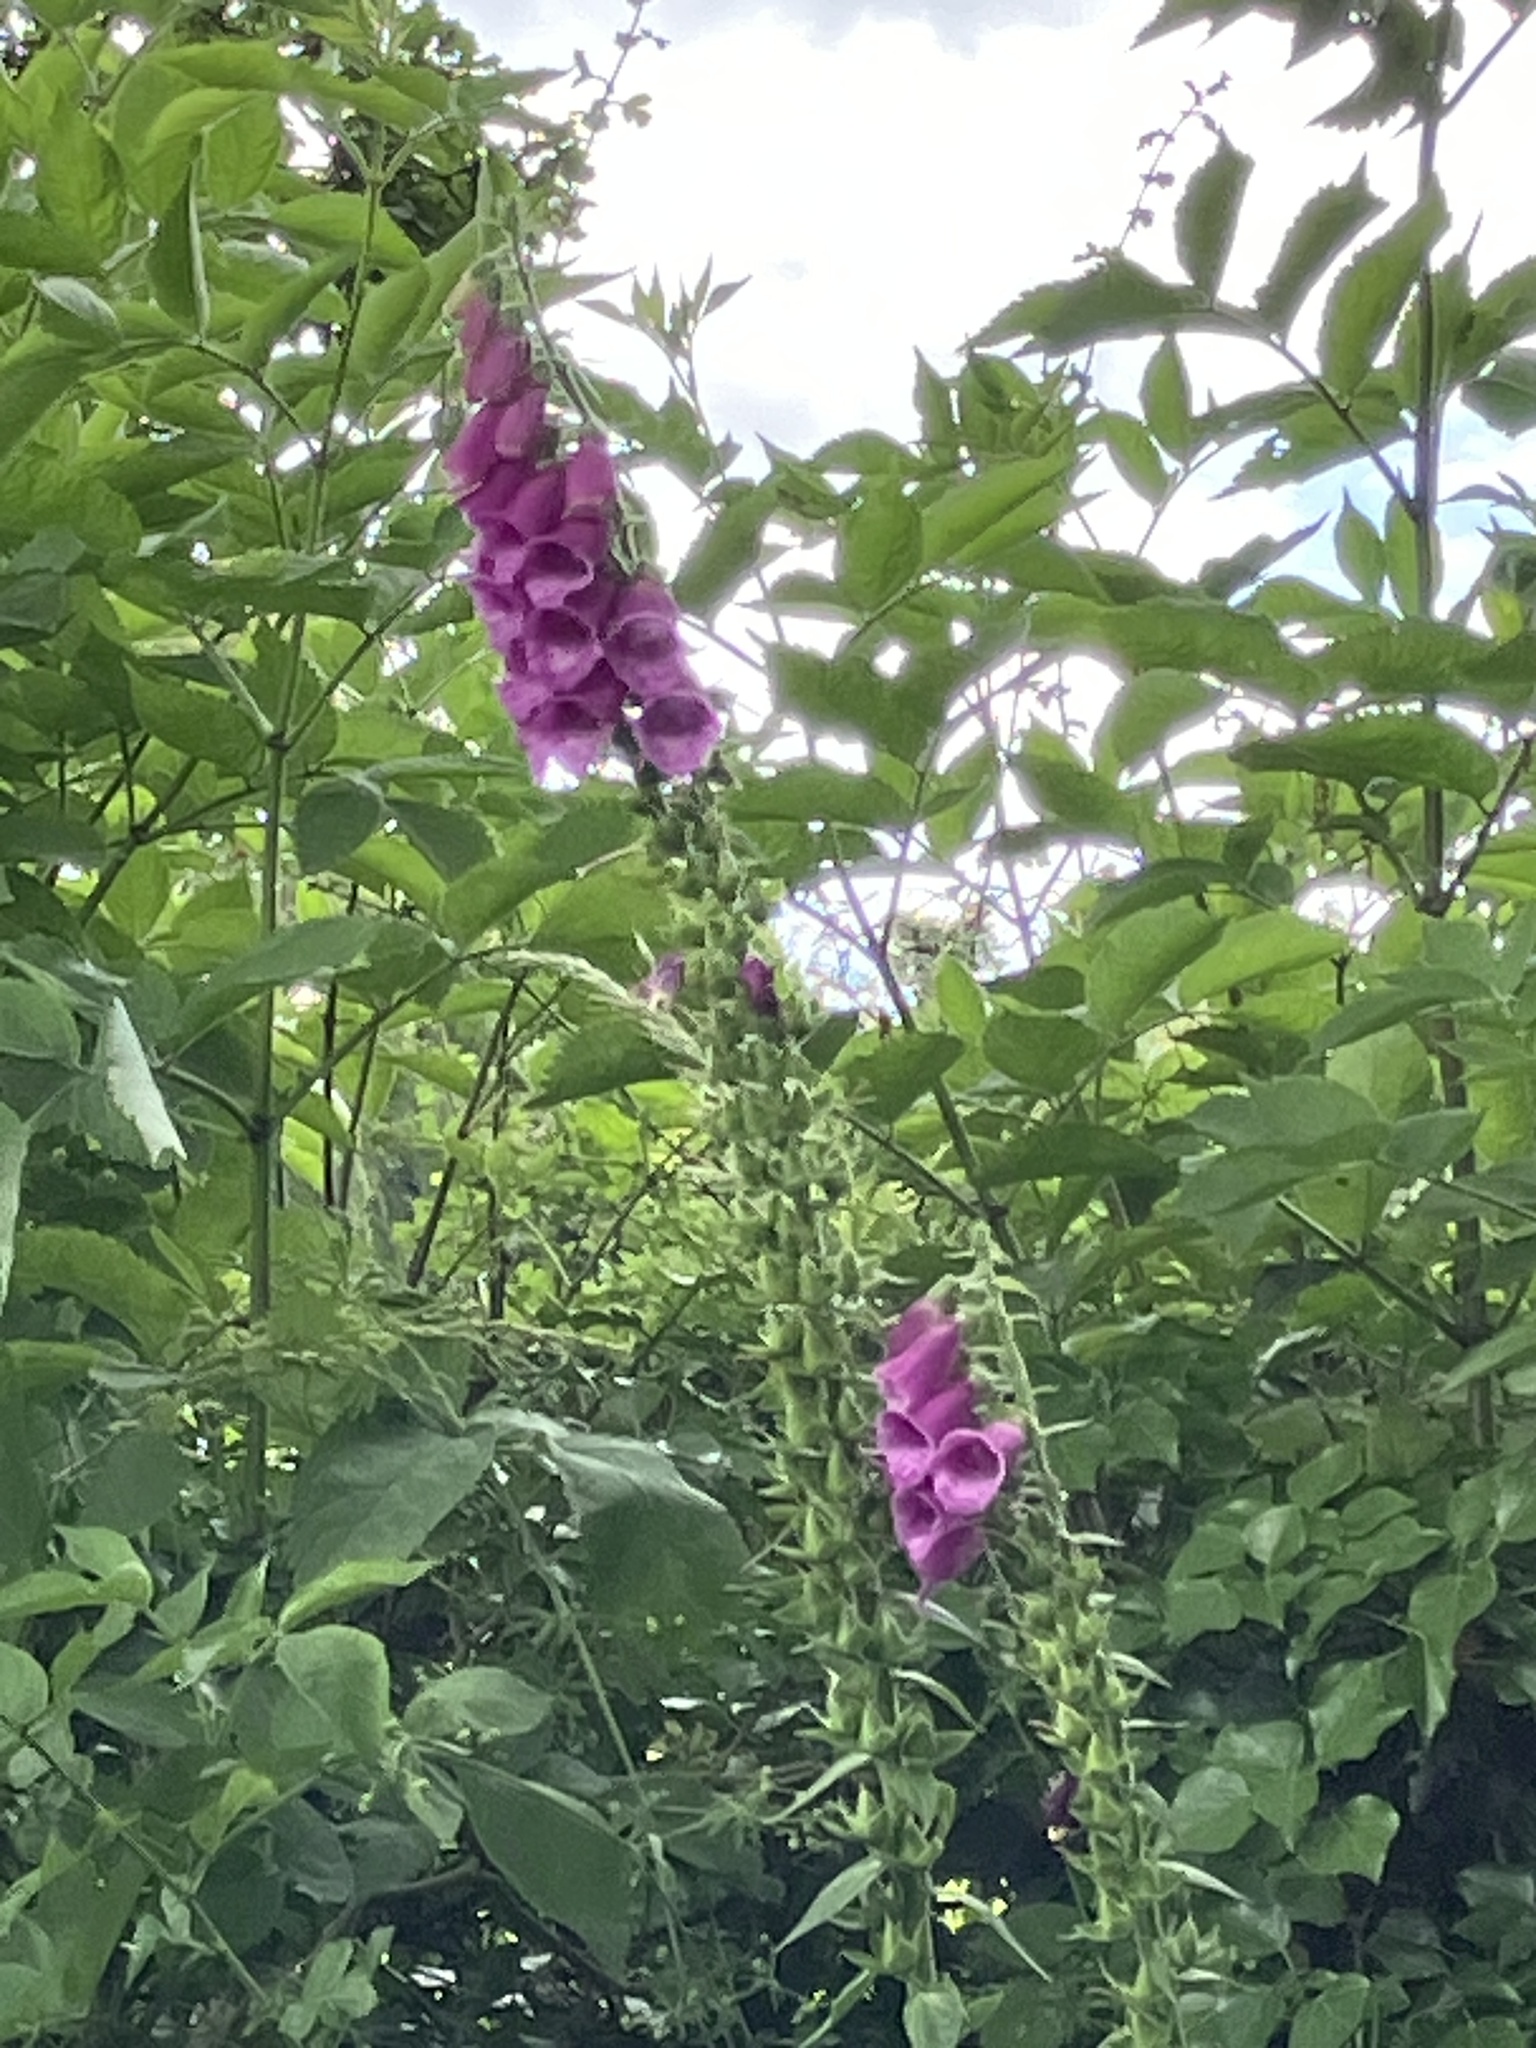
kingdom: Plantae
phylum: Tracheophyta
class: Magnoliopsida
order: Lamiales
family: Plantaginaceae
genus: Digitalis
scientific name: Digitalis purpurea
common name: Foxglove
